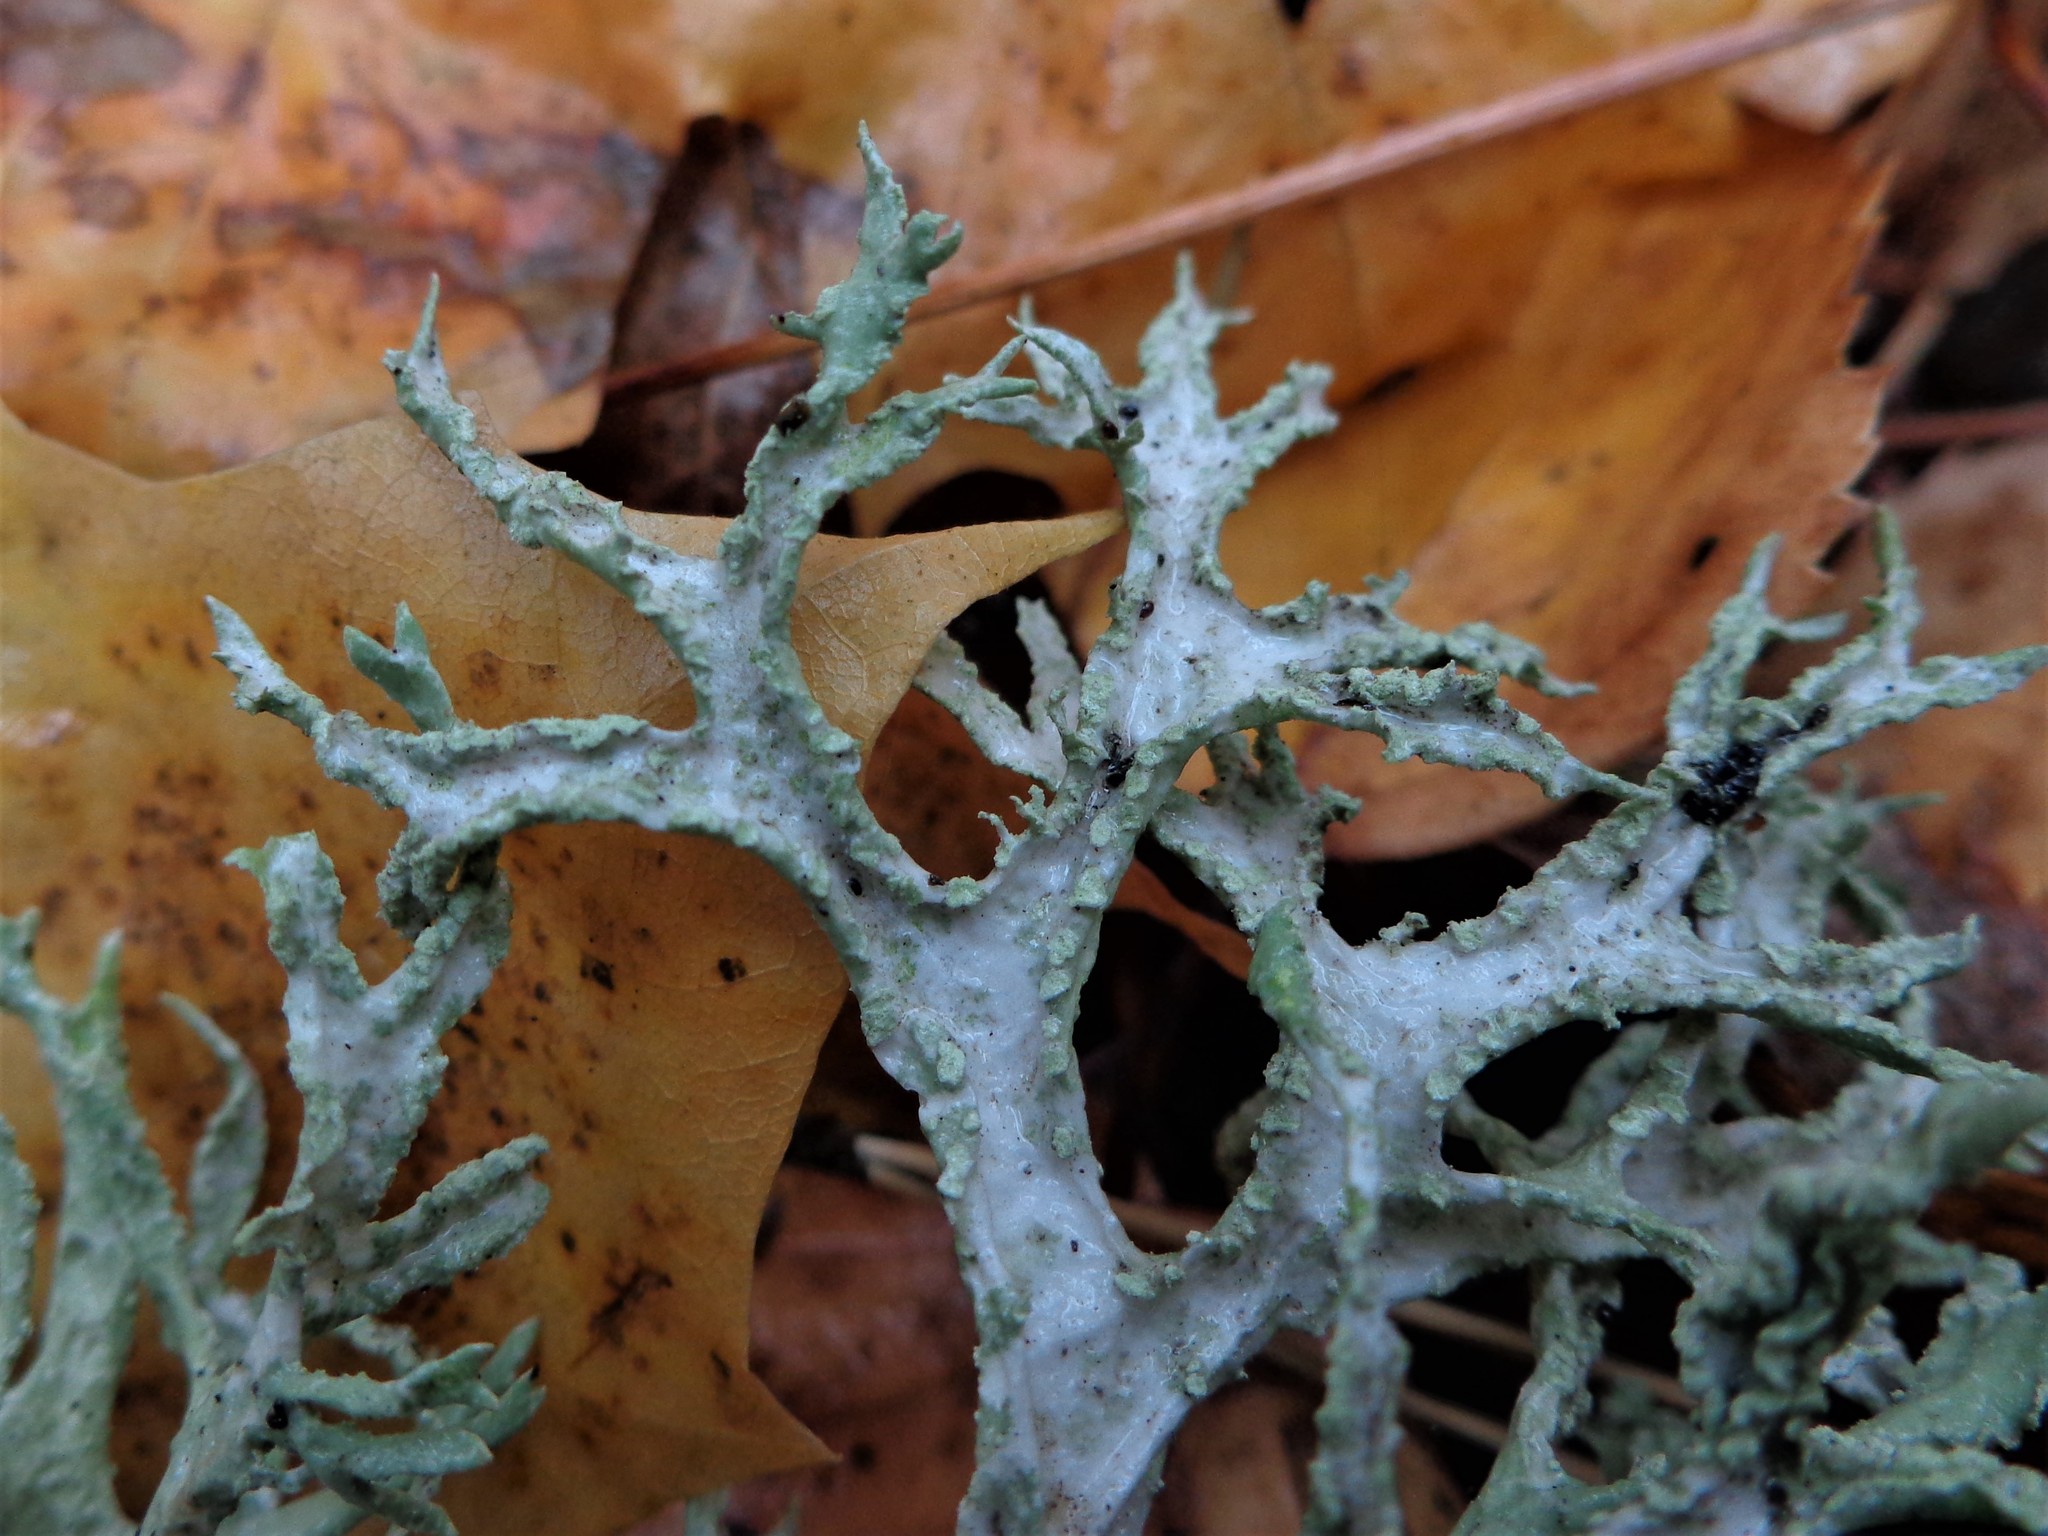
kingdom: Fungi
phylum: Ascomycota
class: Lecanoromycetes
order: Lecanorales
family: Parmeliaceae
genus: Evernia
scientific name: Evernia prunastri
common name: Oak moss
